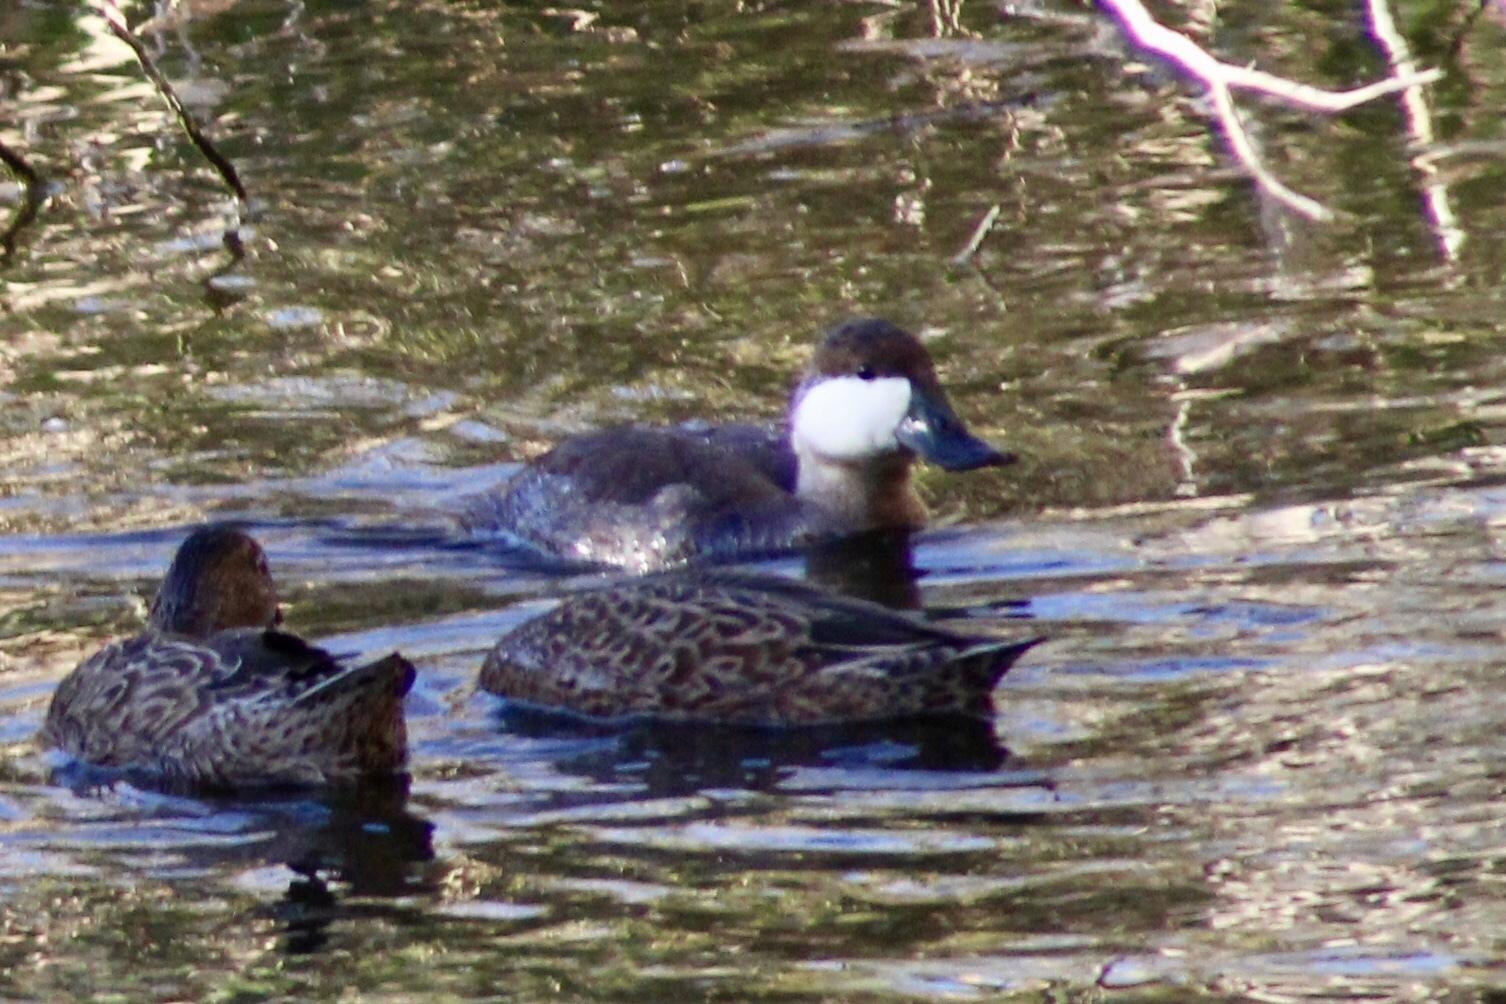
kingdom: Animalia
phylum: Chordata
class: Aves
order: Anseriformes
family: Anatidae
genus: Oxyura
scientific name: Oxyura jamaicensis
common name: Ruddy duck
